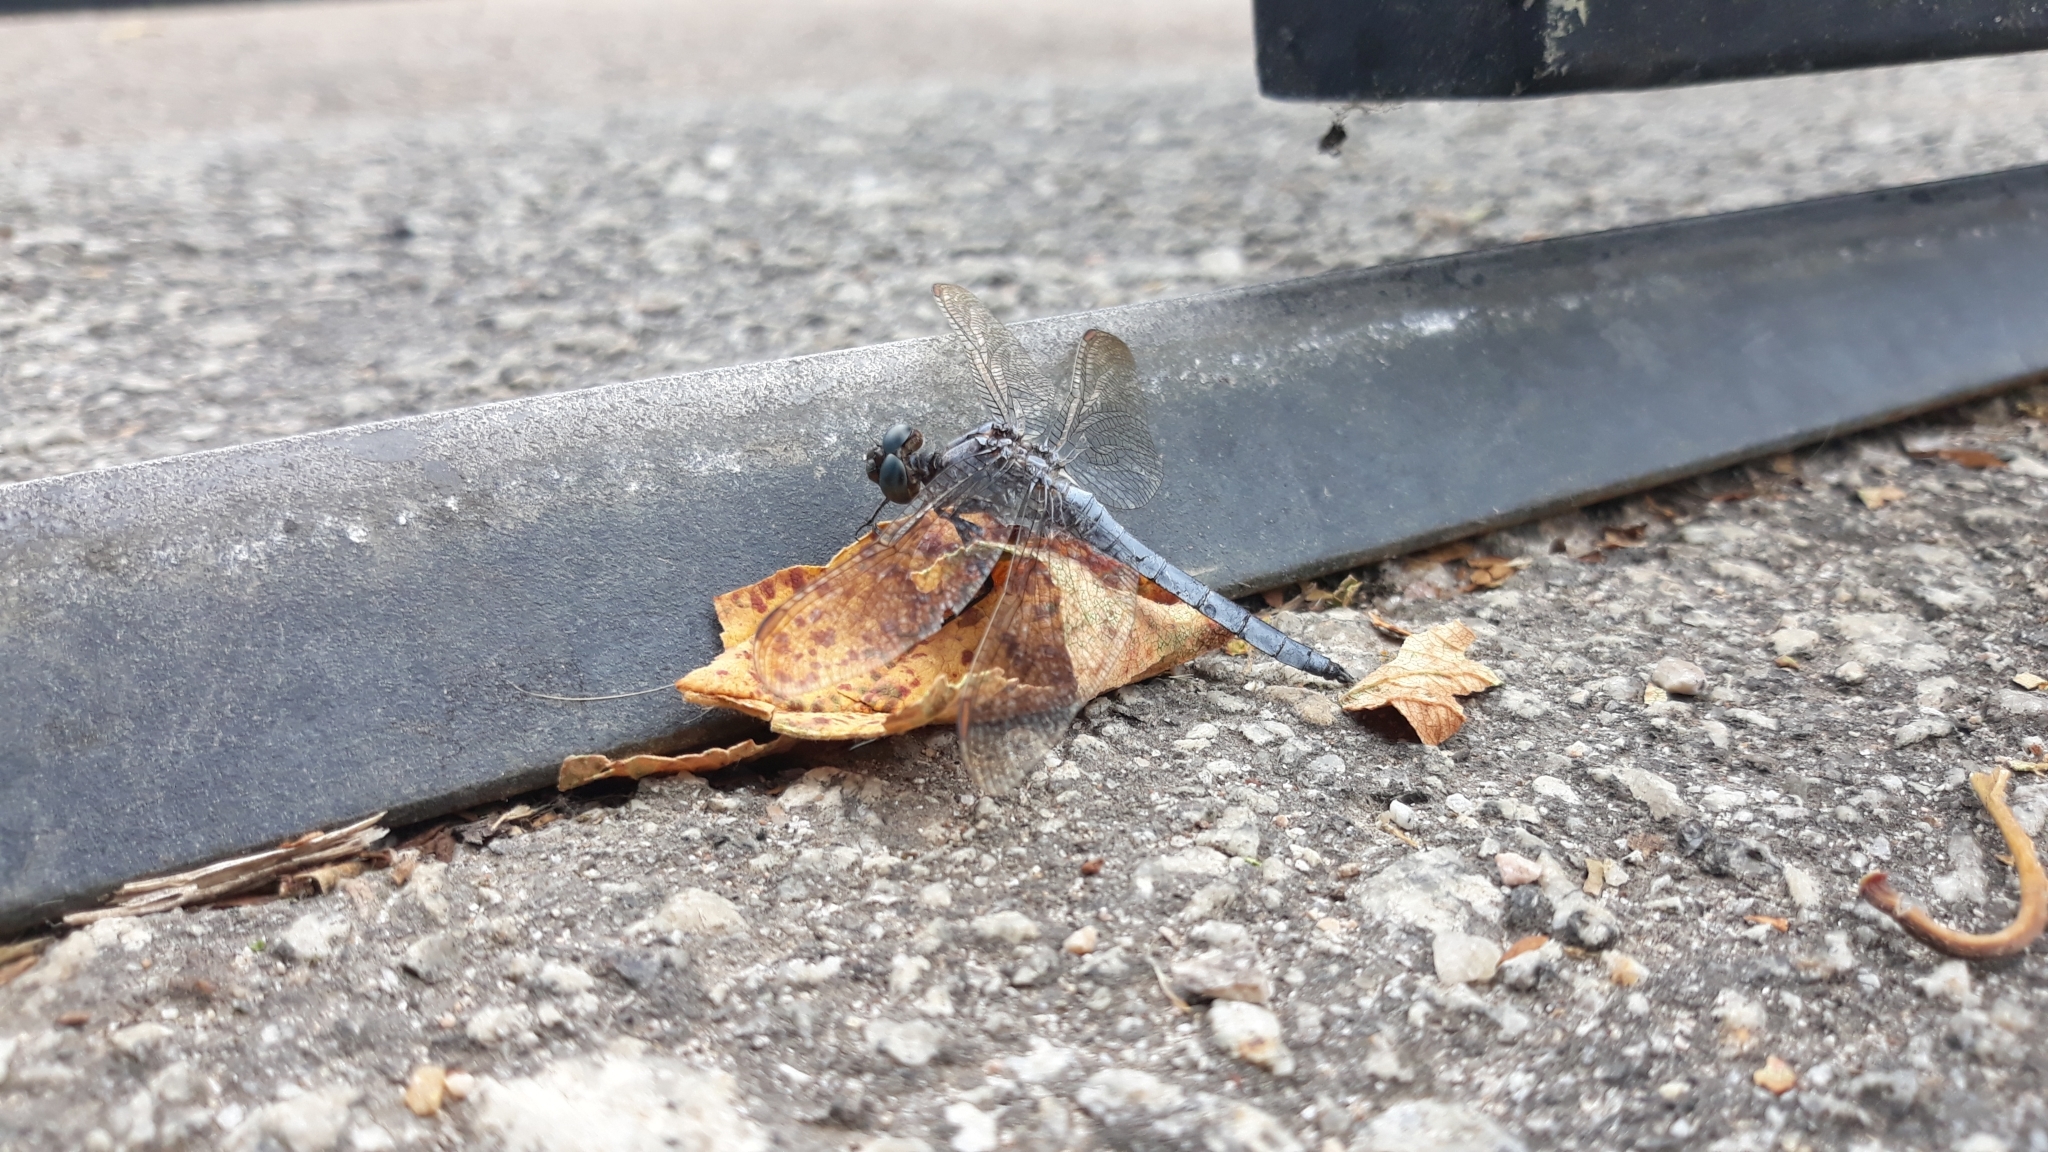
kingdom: Animalia
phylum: Arthropoda
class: Insecta
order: Odonata
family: Libellulidae
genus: Orthetrum
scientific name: Orthetrum coerulescens
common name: Keeled skimmer
